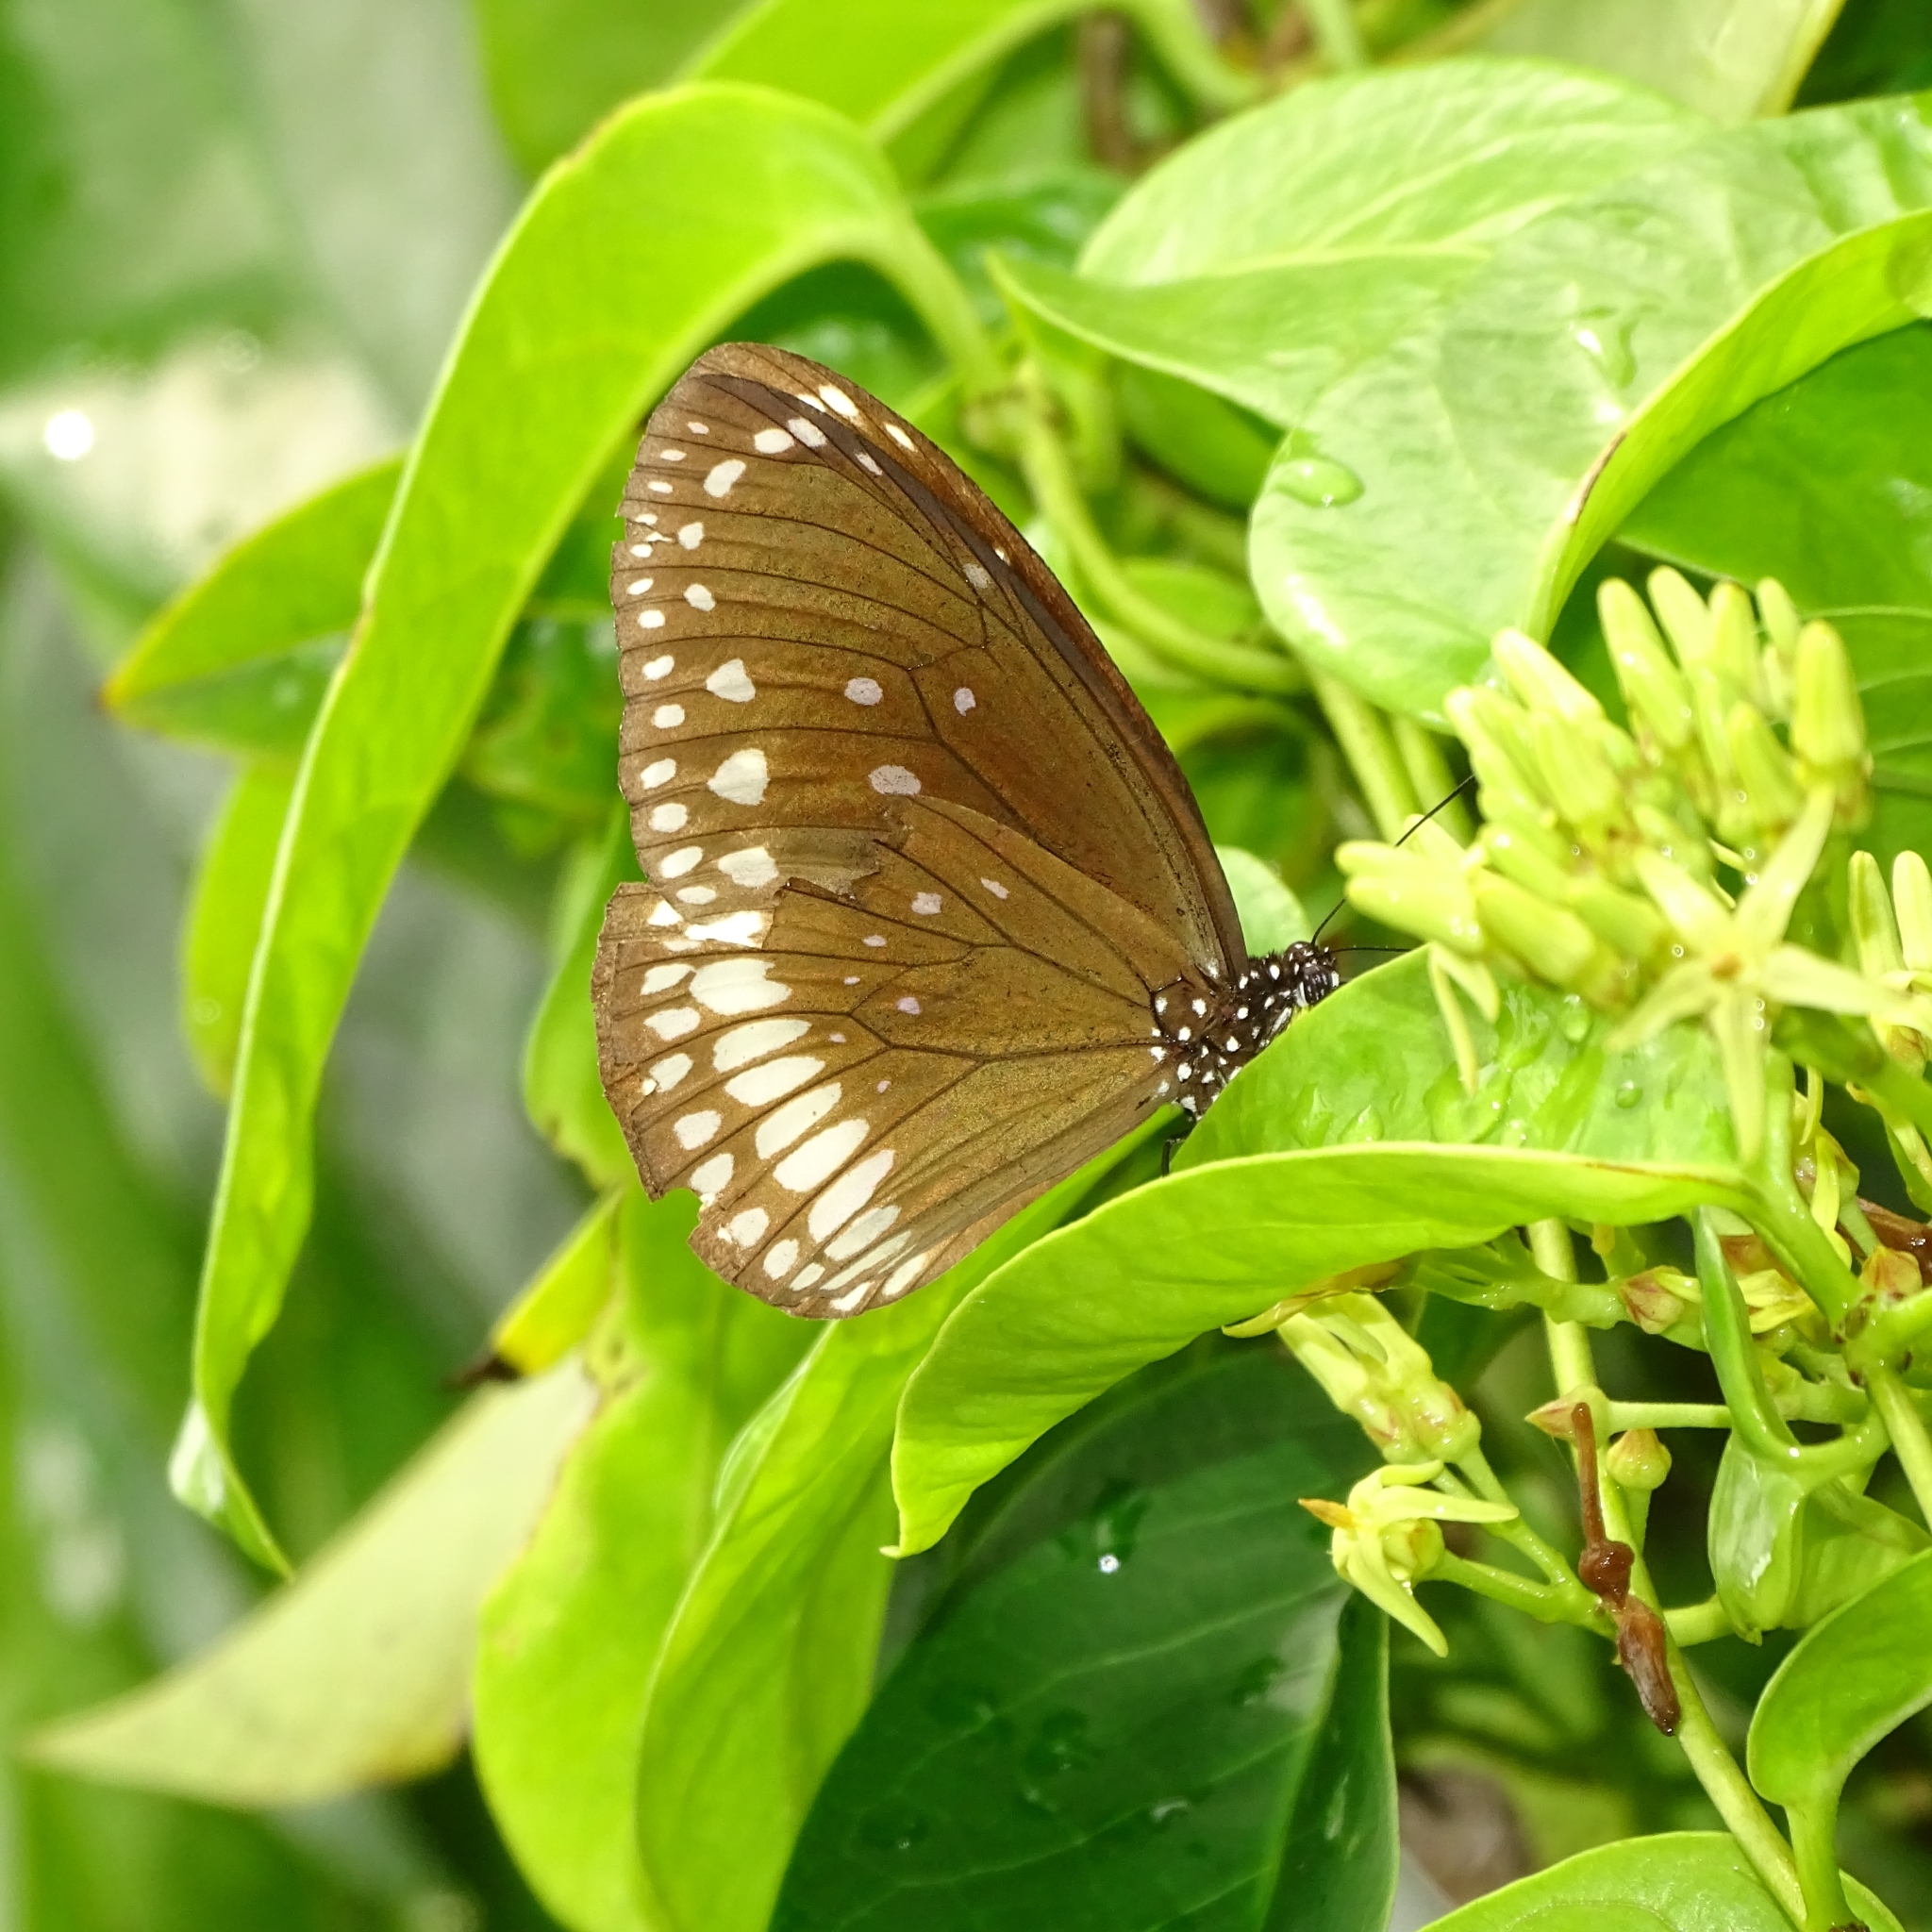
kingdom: Animalia
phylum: Arthropoda
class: Insecta
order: Lepidoptera
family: Nymphalidae
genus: Euploea
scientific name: Euploea core
